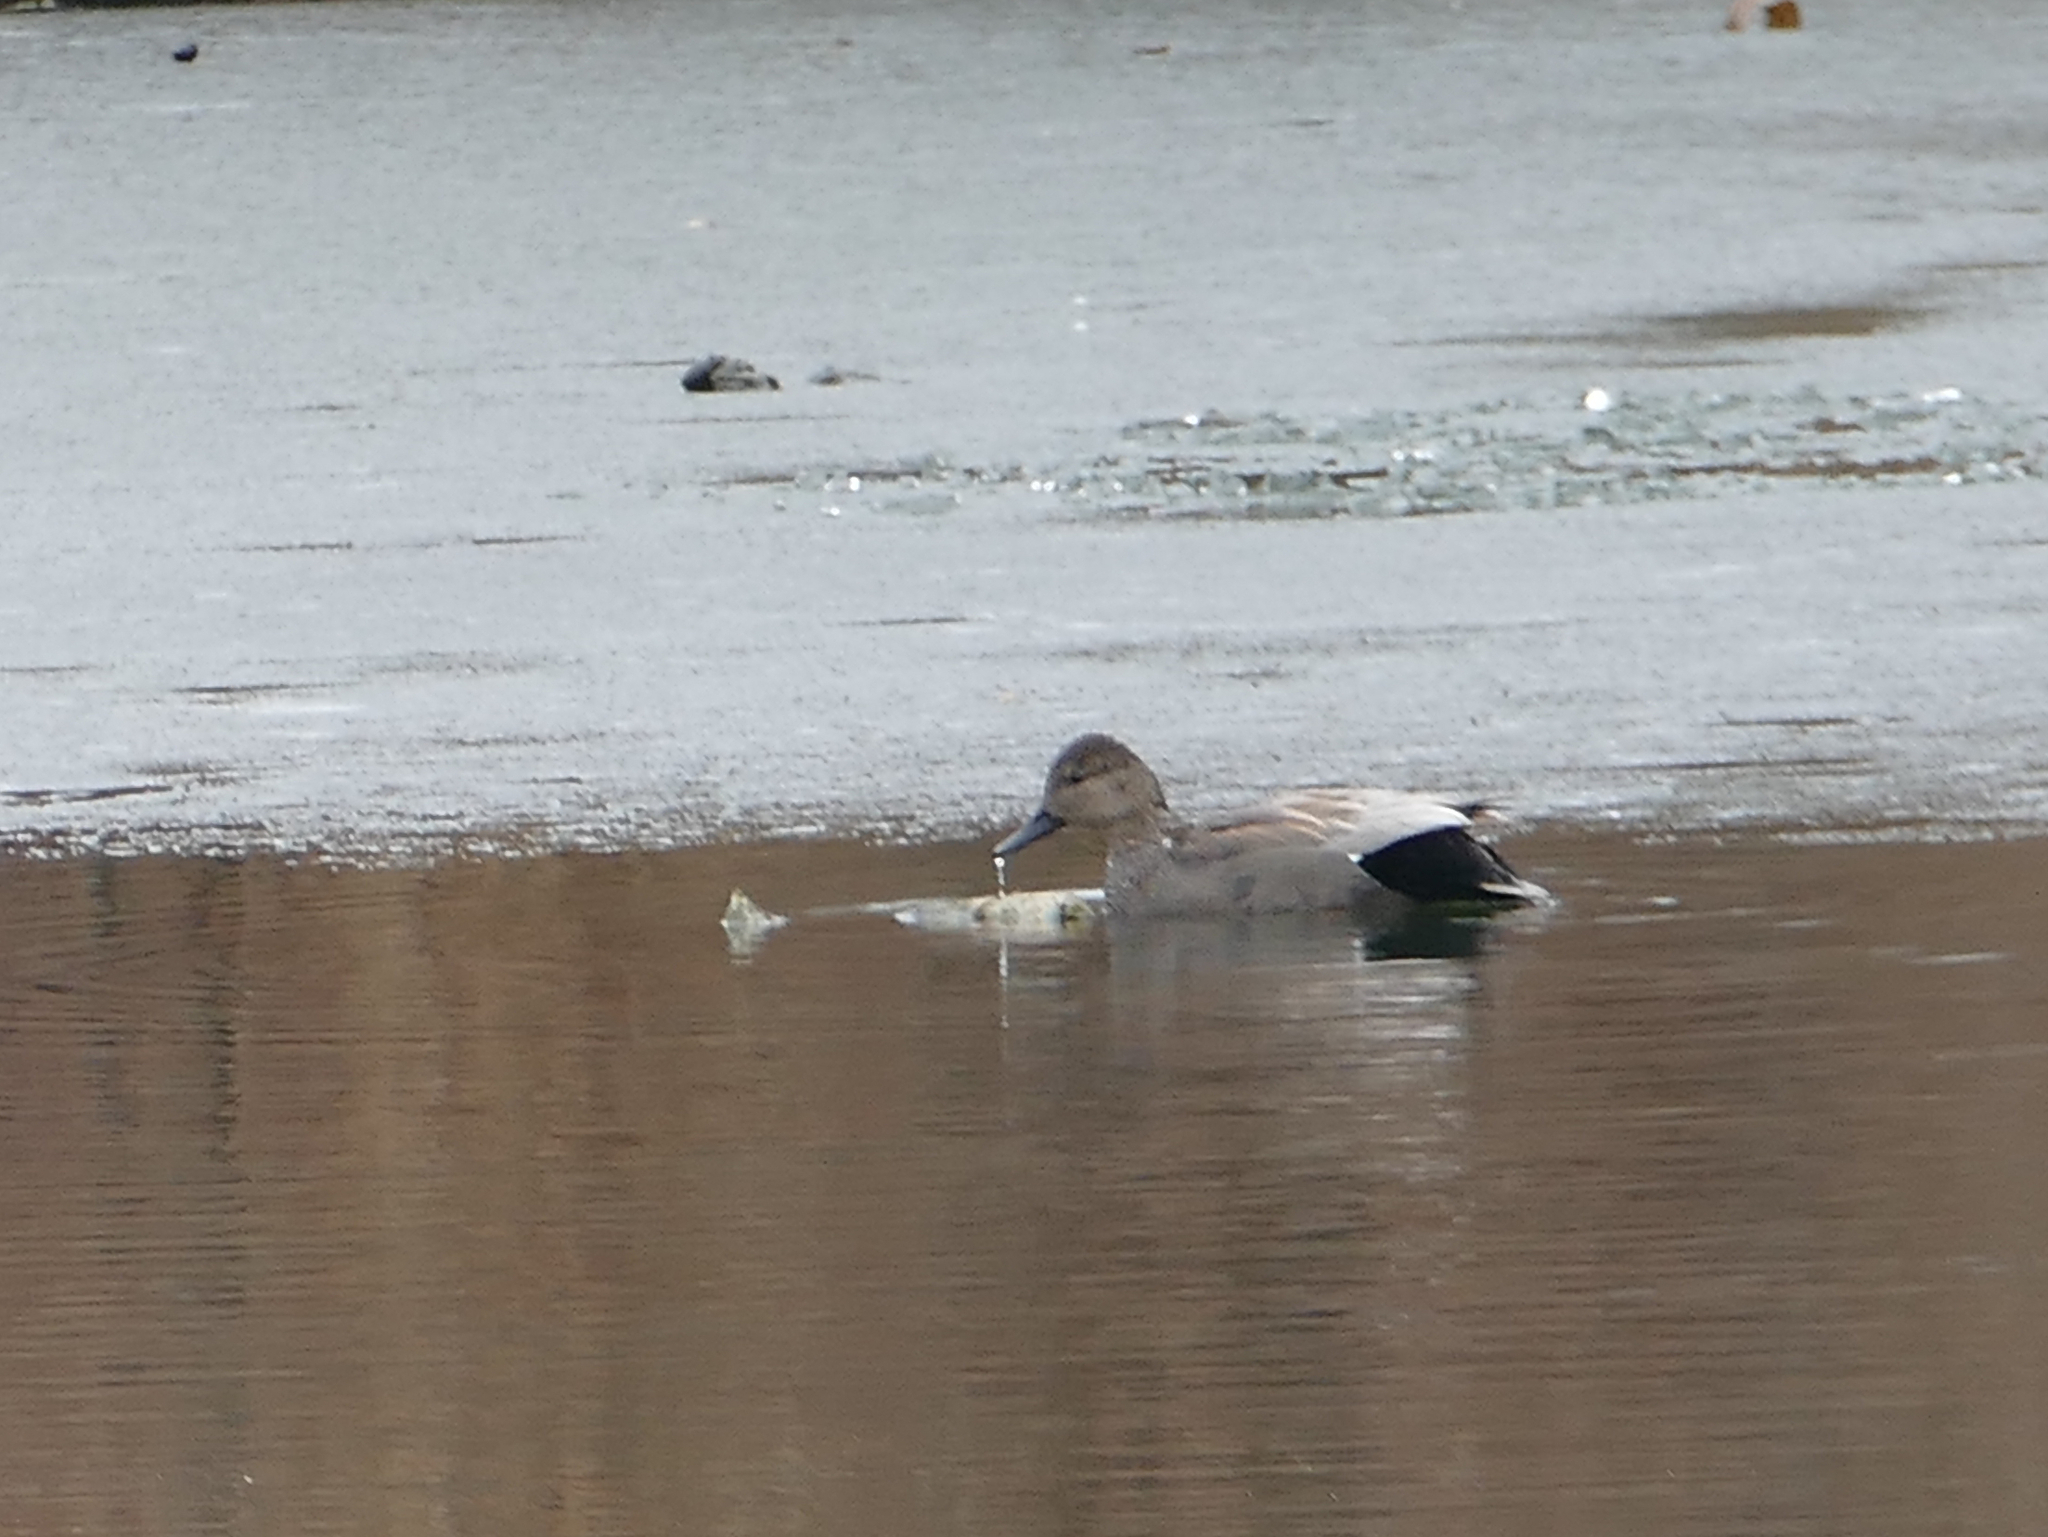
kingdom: Animalia
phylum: Chordata
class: Aves
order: Anseriformes
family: Anatidae
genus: Mareca
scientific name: Mareca strepera
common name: Gadwall
